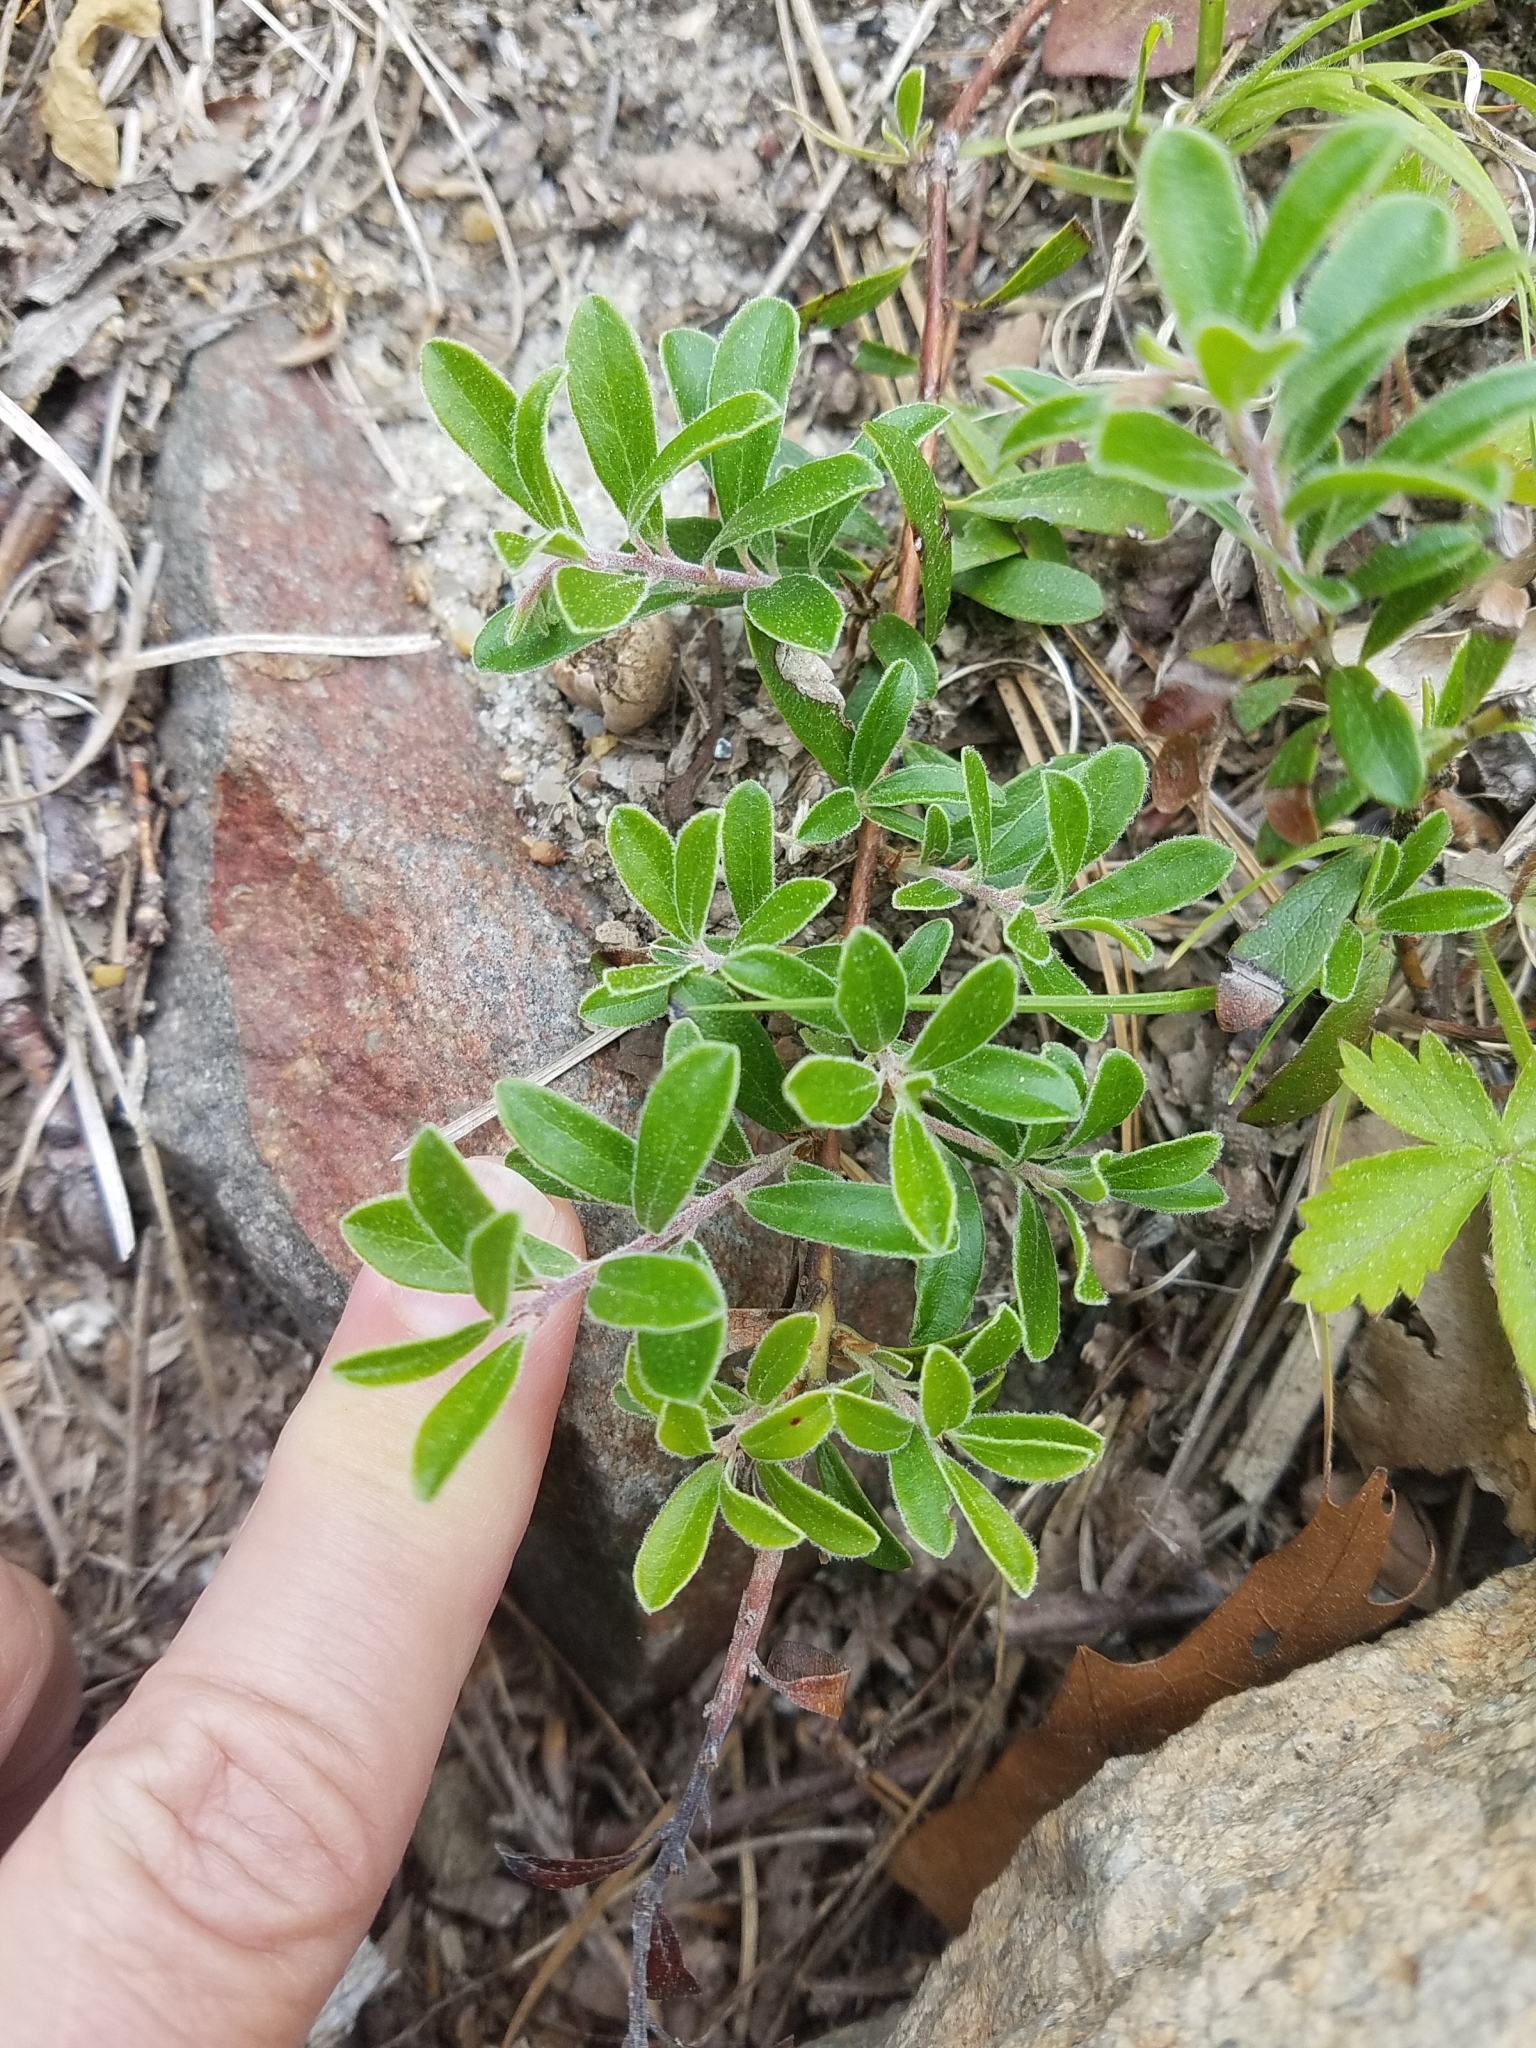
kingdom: Plantae
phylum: Tracheophyta
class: Magnoliopsida
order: Ericales
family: Ericaceae
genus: Arctostaphylos
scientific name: Arctostaphylos uva-ursi
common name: Bearberry
